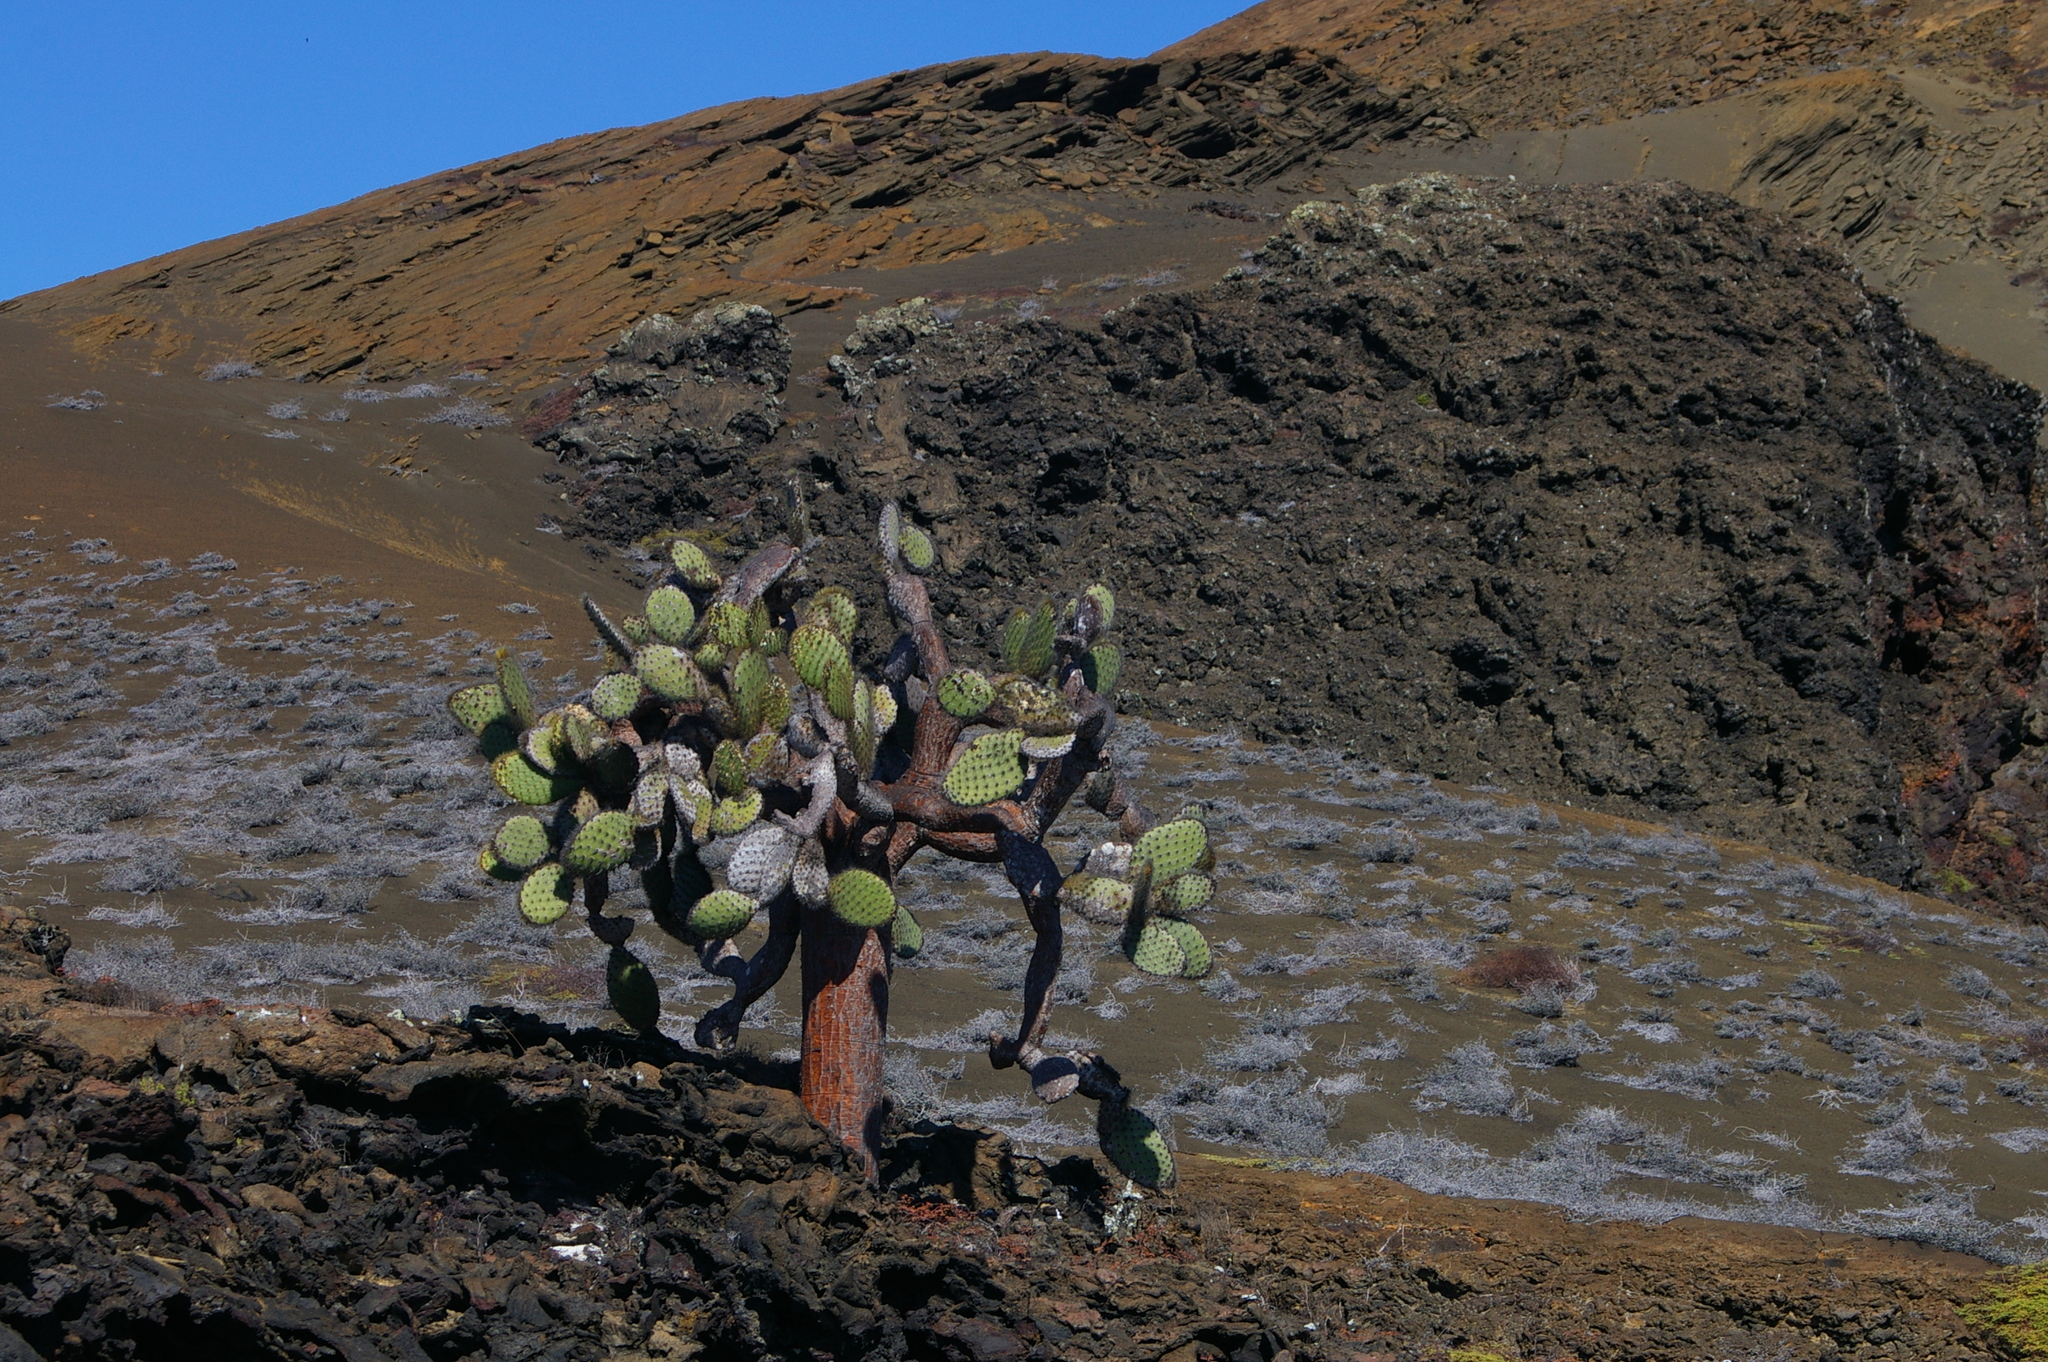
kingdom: Plantae
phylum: Tracheophyta
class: Magnoliopsida
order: Caryophyllales
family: Cactaceae
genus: Opuntia
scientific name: Opuntia galapageia
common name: Galápagos prickly pear
